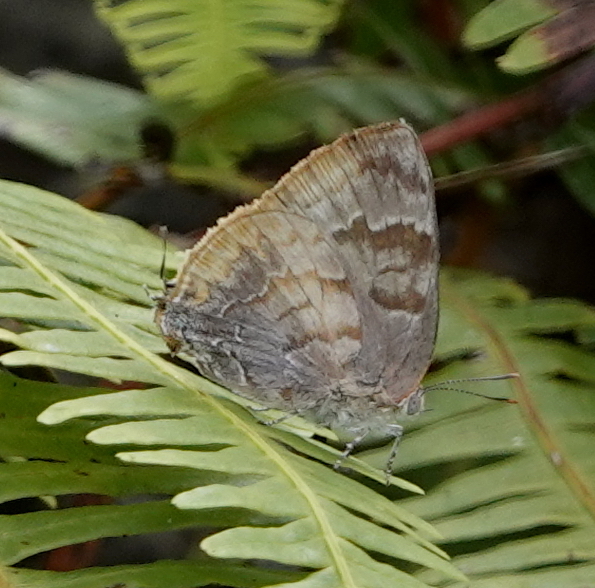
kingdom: Animalia
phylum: Arthropoda
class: Insecta
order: Lepidoptera
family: Lycaenidae
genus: Rekoa
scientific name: Rekoa palegon
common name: Gold-bordered hairstreak
